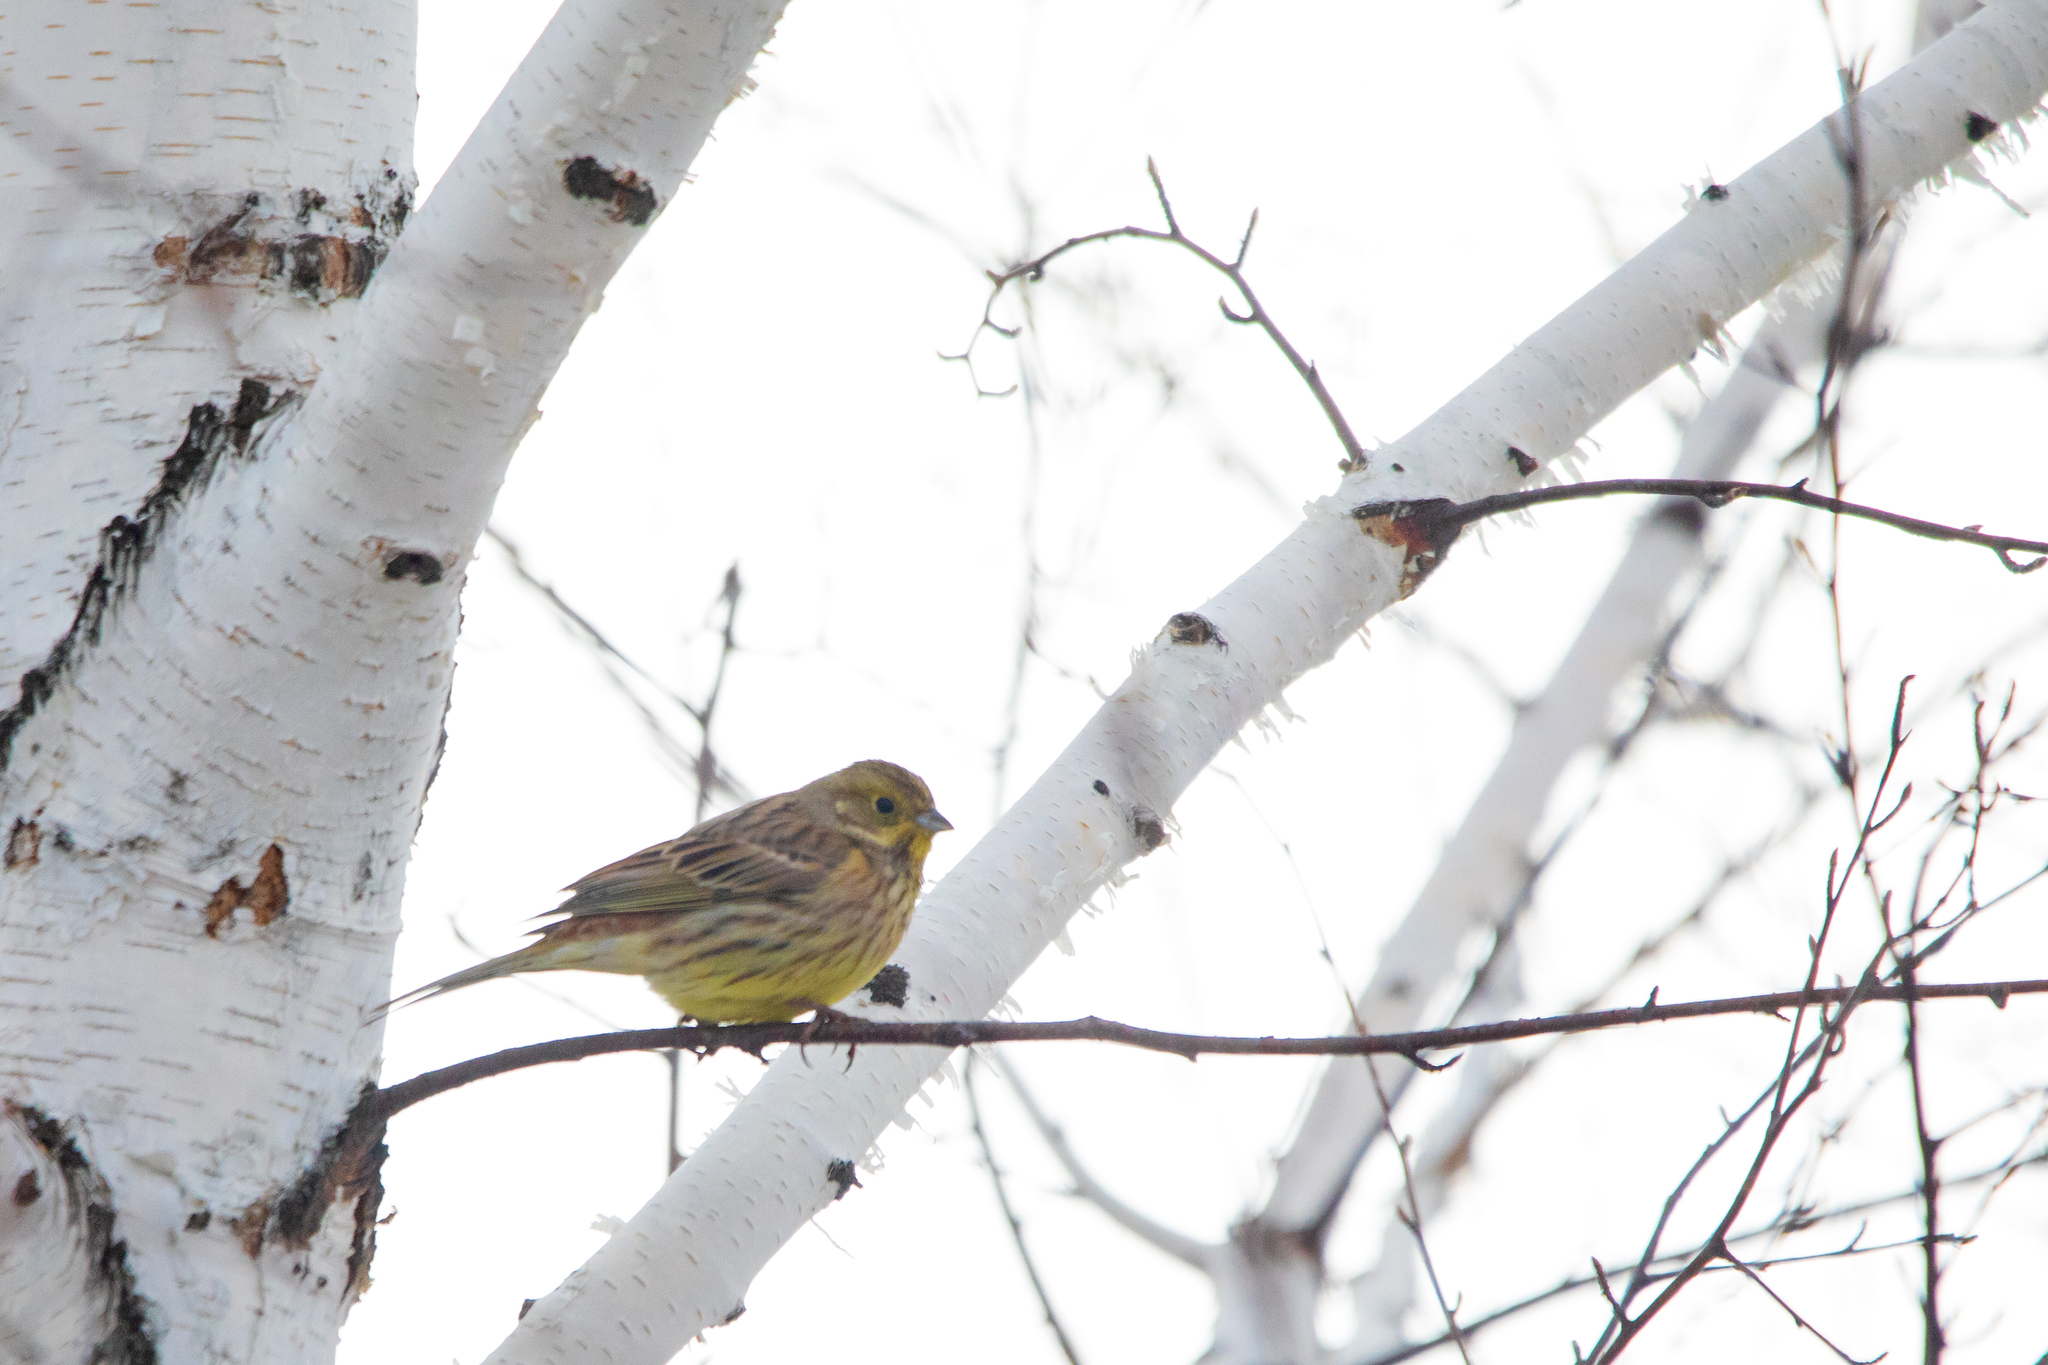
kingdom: Animalia
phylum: Chordata
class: Aves
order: Passeriformes
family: Emberizidae
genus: Emberiza
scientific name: Emberiza citrinella
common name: Yellowhammer
